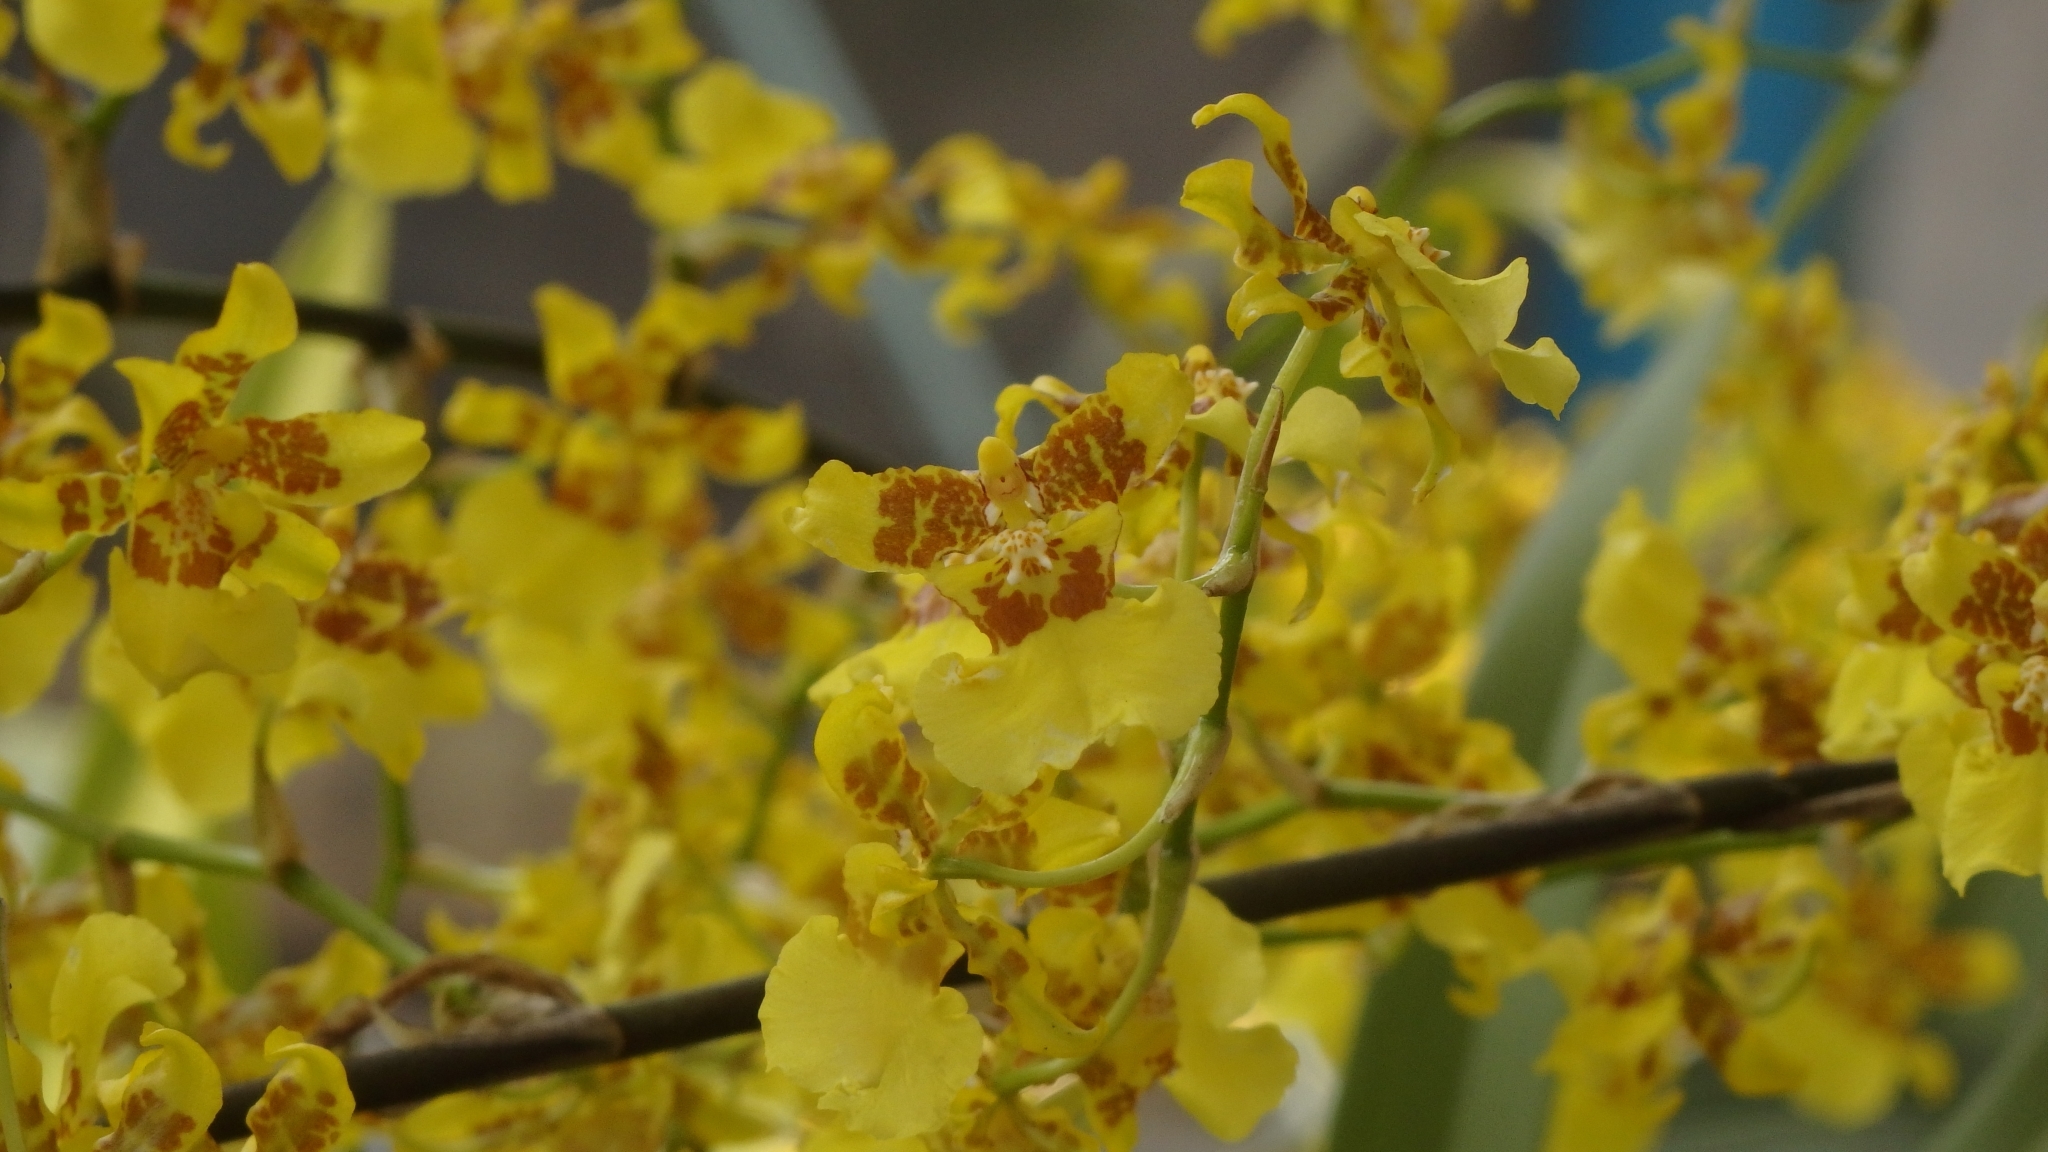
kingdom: Plantae
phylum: Tracheophyta
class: Liliopsida
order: Asparagales
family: Orchidaceae
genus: Oncidium
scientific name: Oncidium sphacelatum
